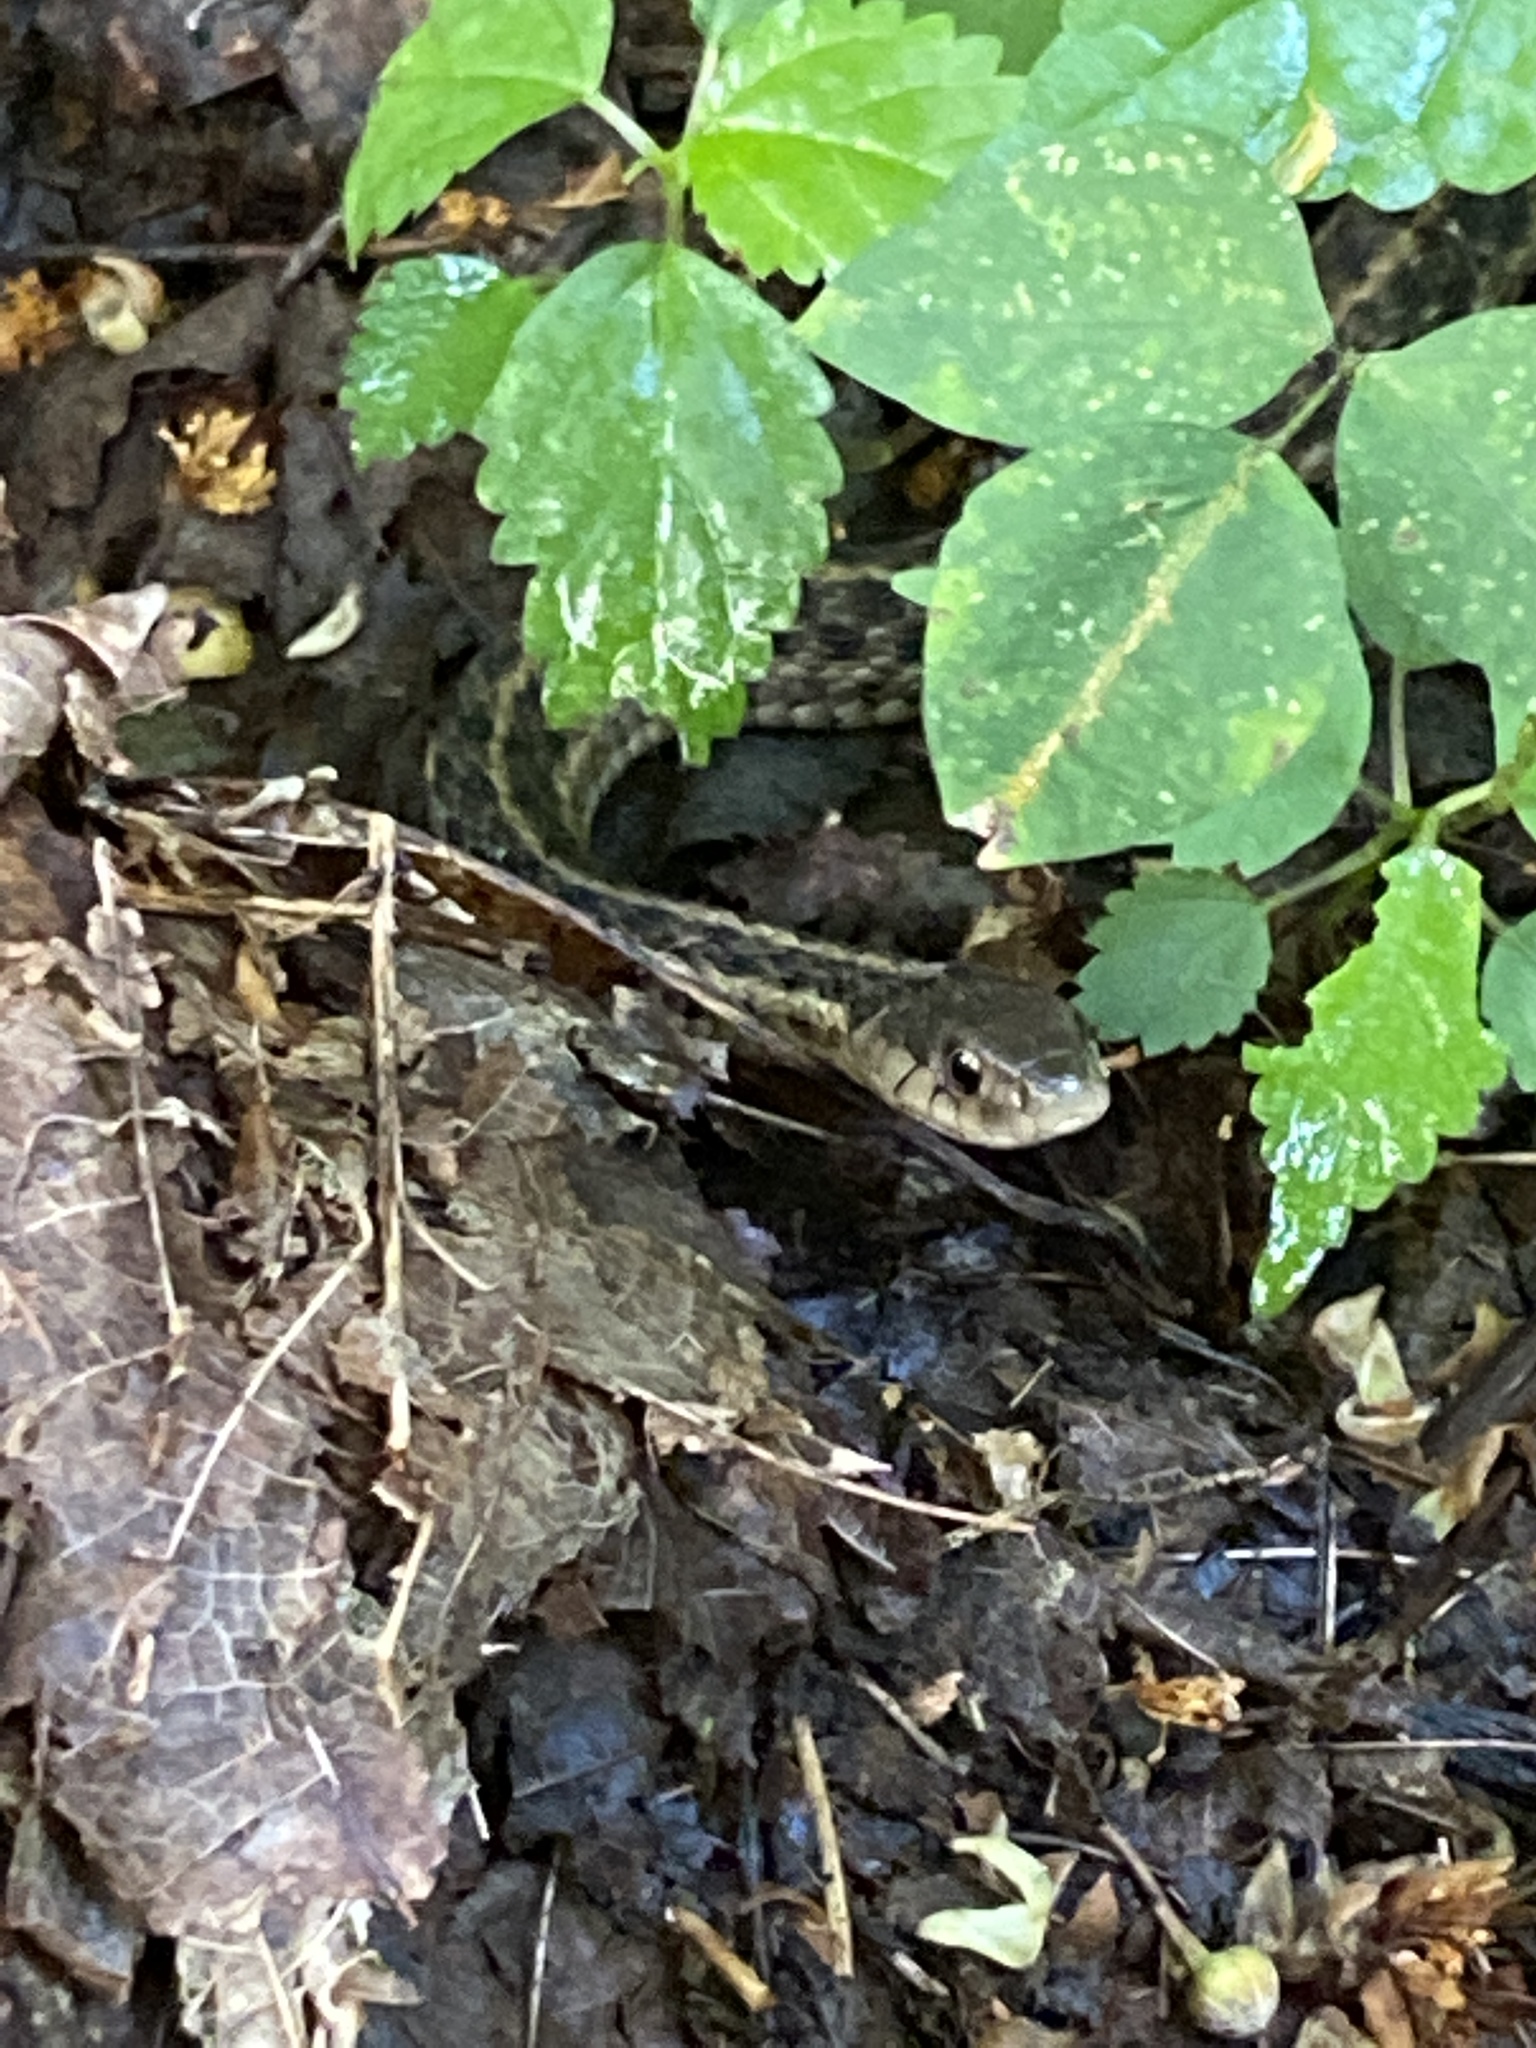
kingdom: Animalia
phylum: Chordata
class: Squamata
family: Colubridae
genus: Thamnophis
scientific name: Thamnophis sirtalis
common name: Common garter snake
